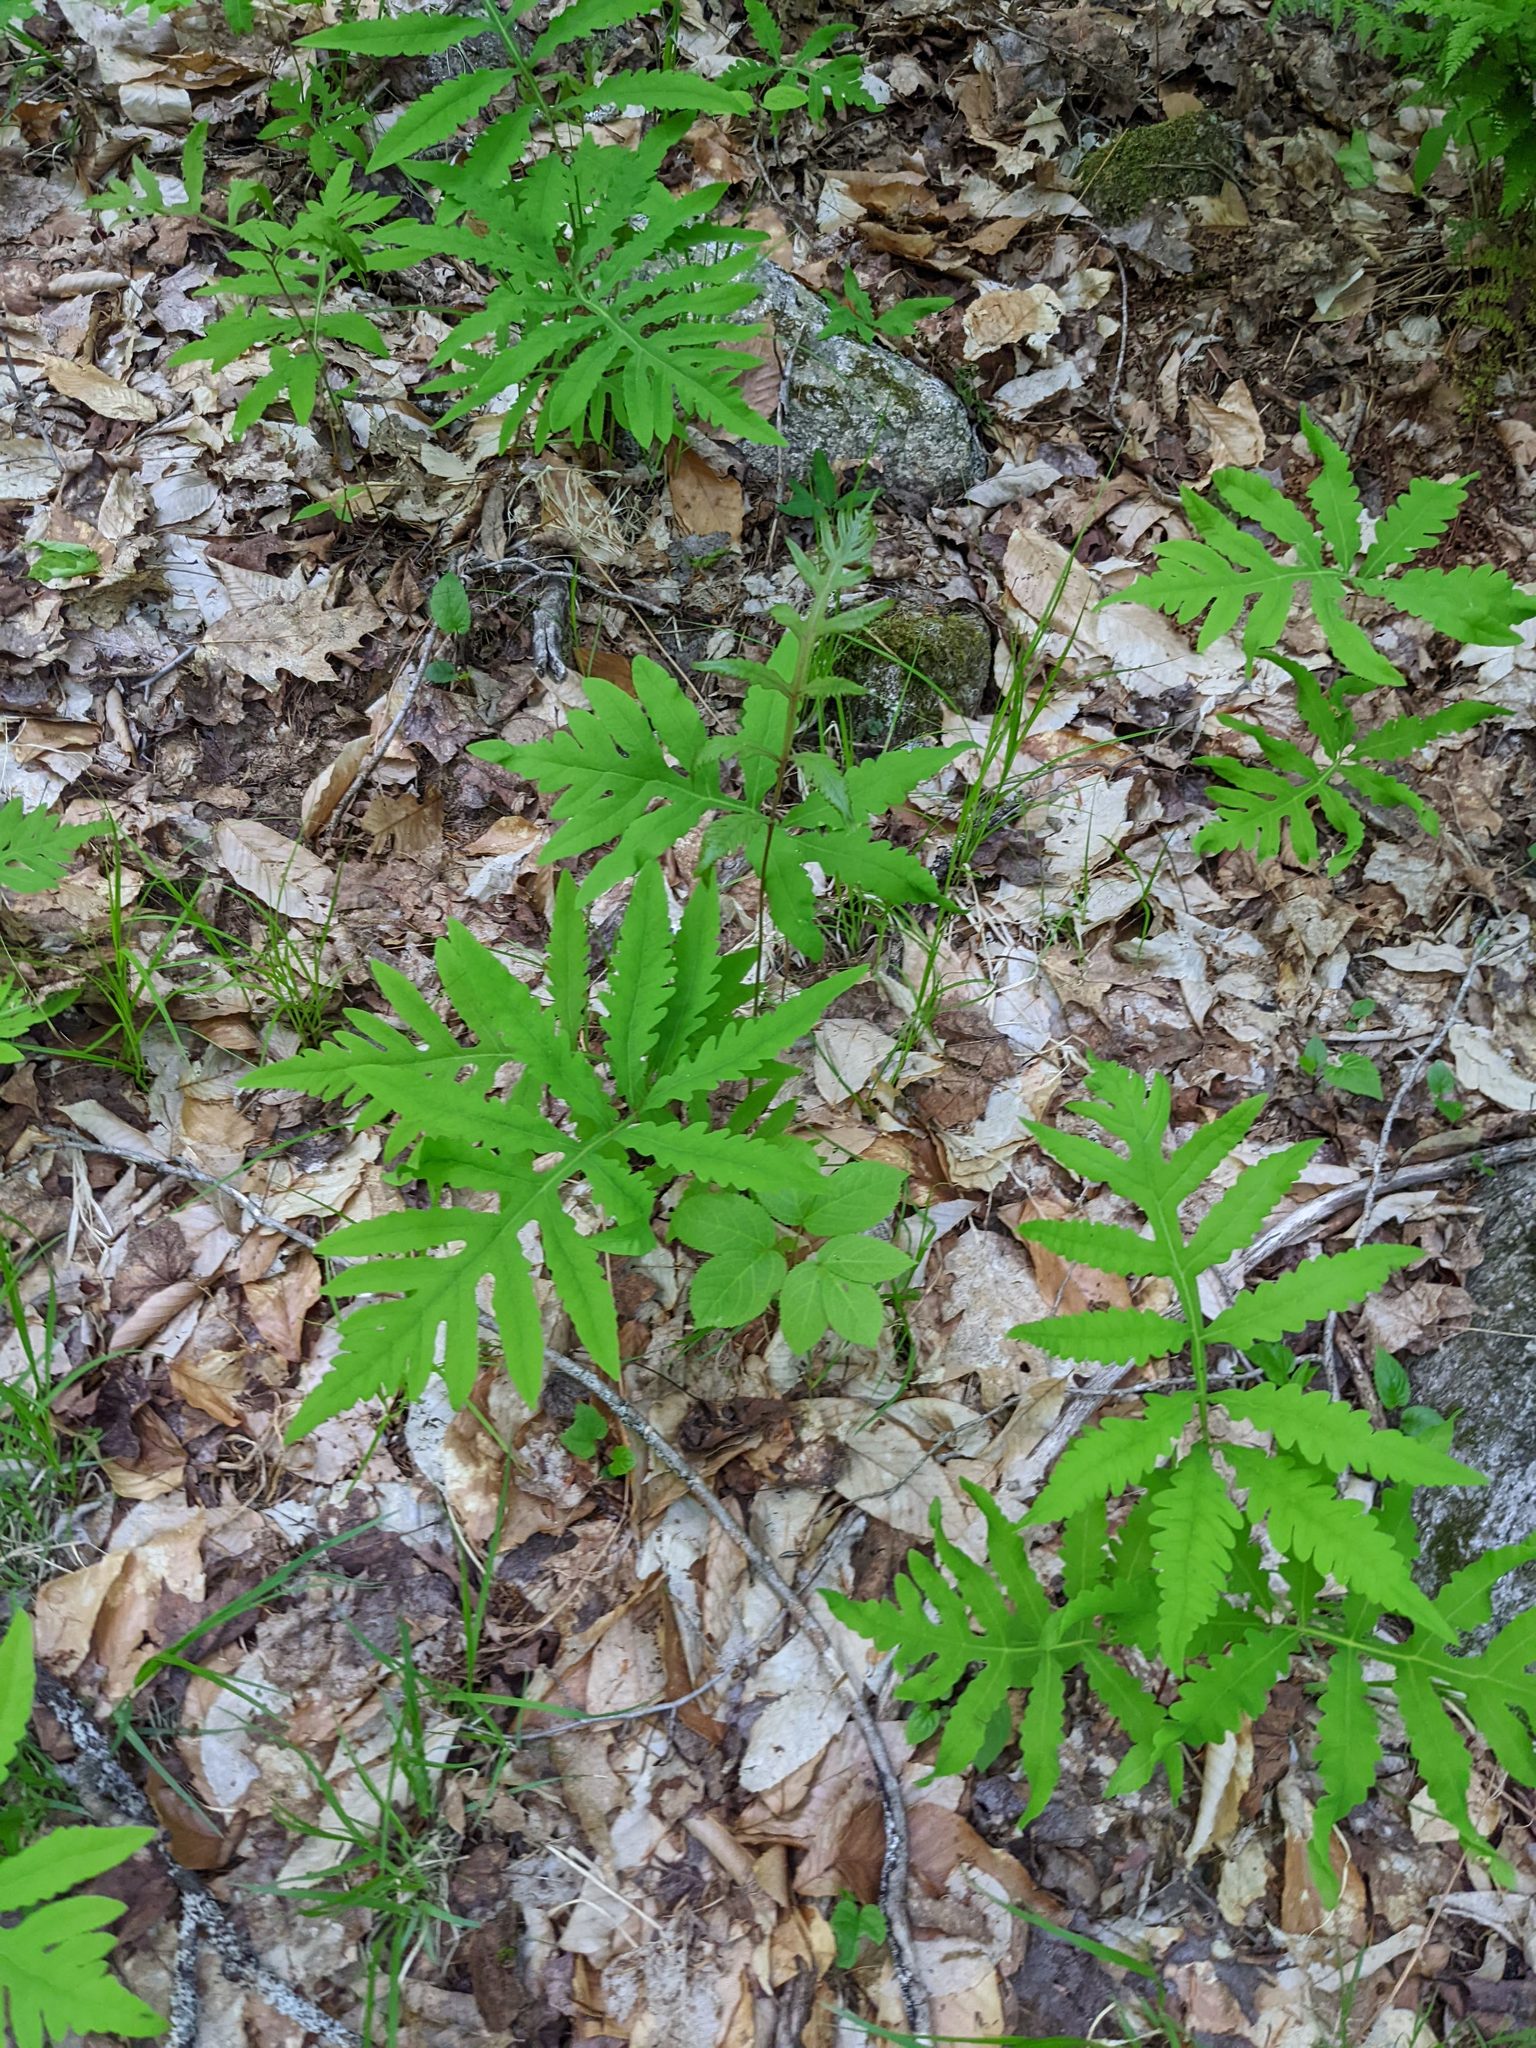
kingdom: Plantae
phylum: Tracheophyta
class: Polypodiopsida
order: Polypodiales
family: Onocleaceae
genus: Onoclea
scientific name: Onoclea sensibilis
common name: Sensitive fern
